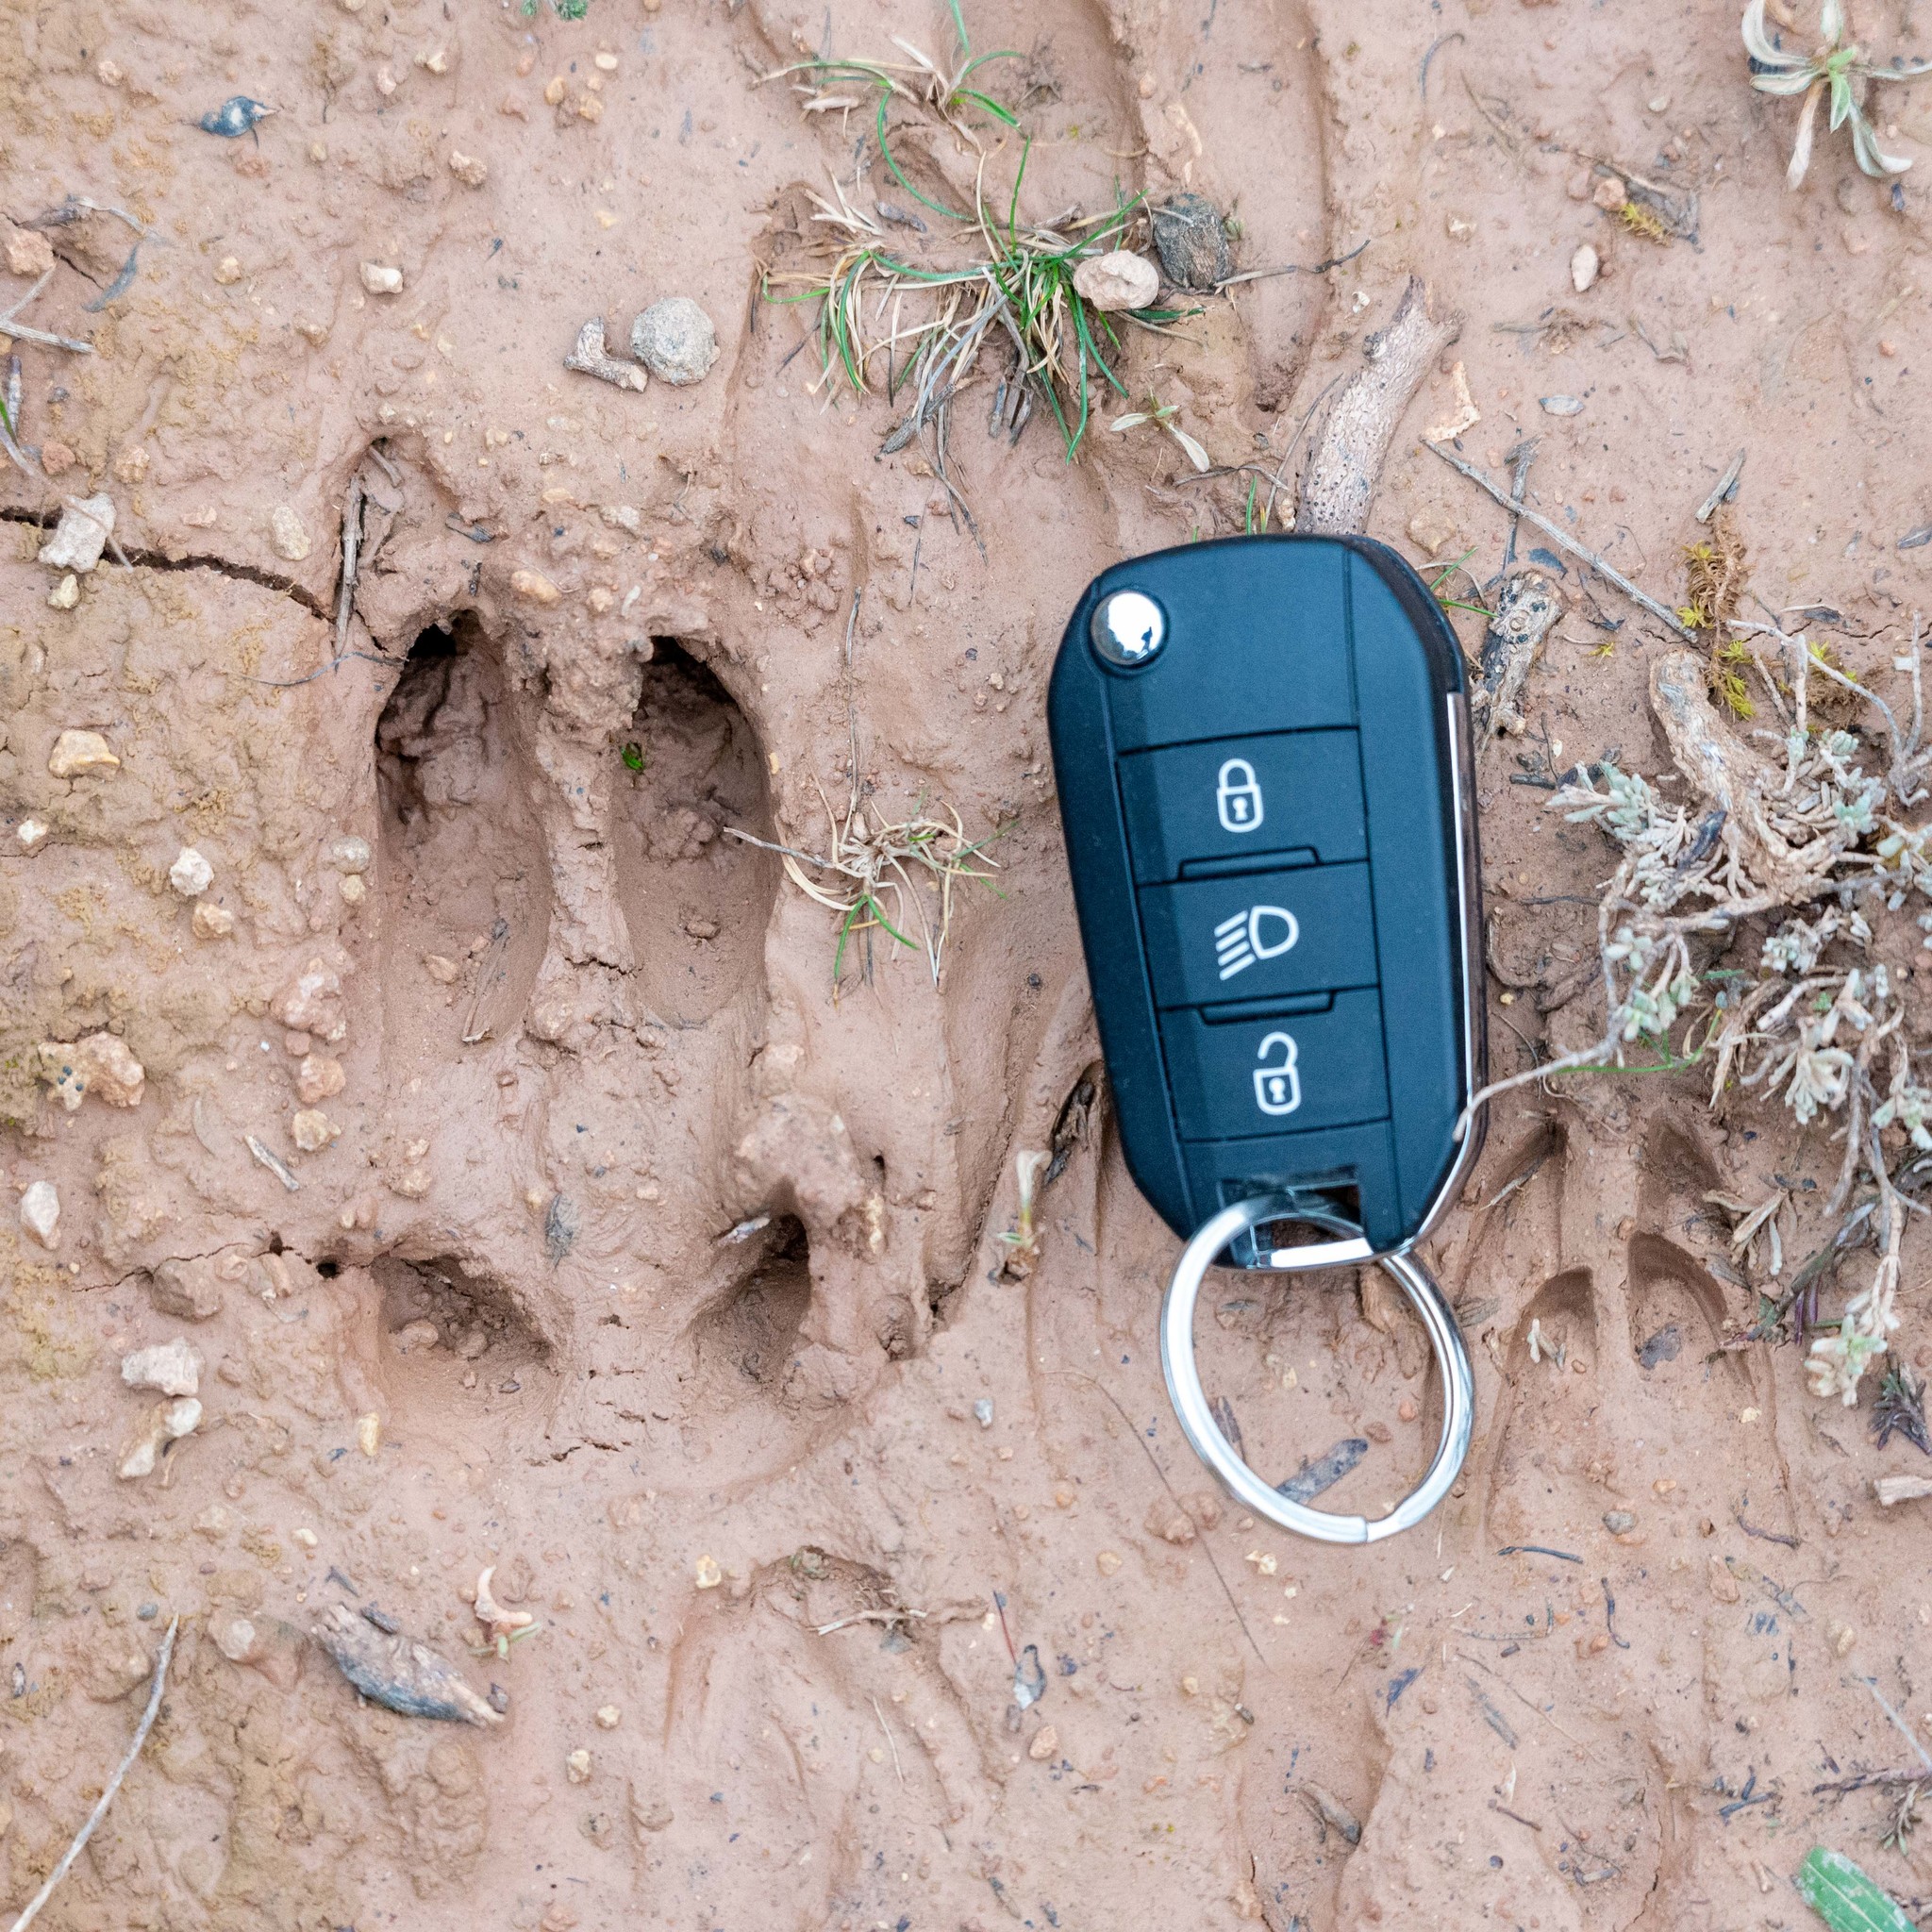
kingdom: Animalia
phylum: Chordata
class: Mammalia
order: Artiodactyla
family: Cervidae
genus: Capreolus
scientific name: Capreolus capreolus
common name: Western roe deer
